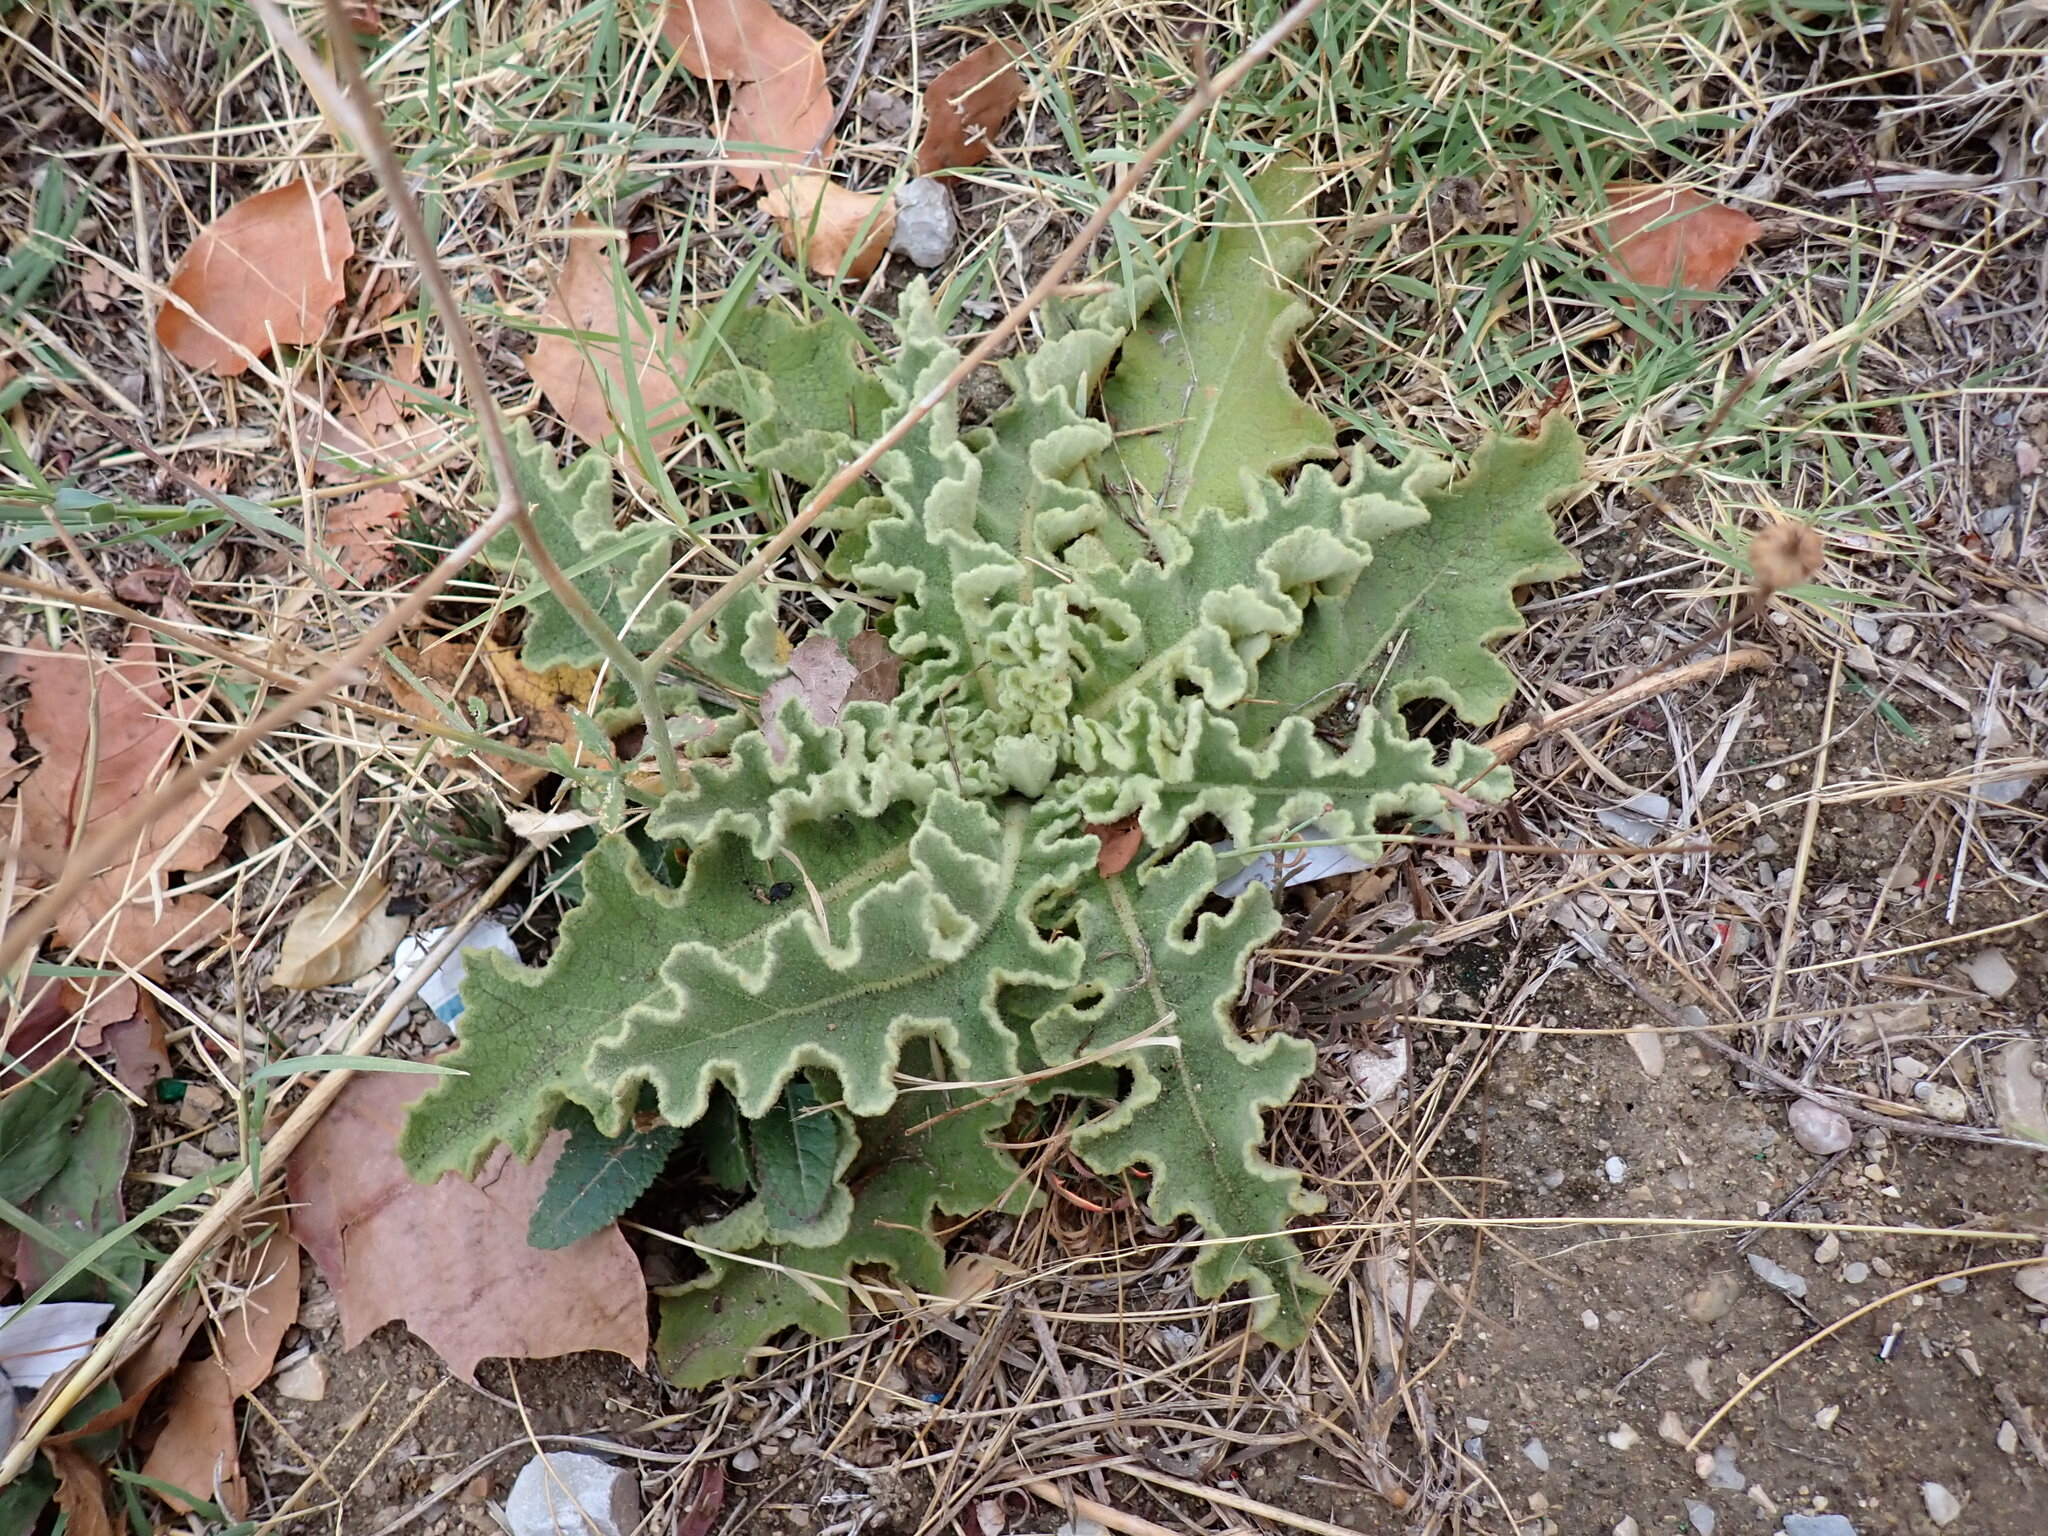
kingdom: Plantae
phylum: Tracheophyta
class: Magnoliopsida
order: Lamiales
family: Scrophulariaceae
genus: Verbascum
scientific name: Verbascum sinuatum
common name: Wavyleaf mullein
